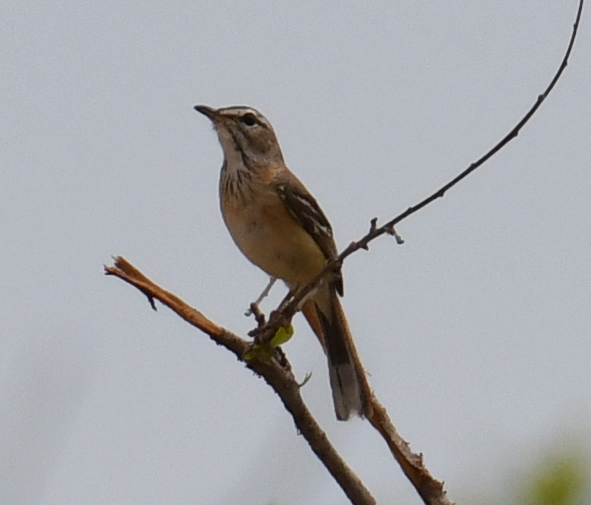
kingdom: Animalia
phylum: Chordata
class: Aves
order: Passeriformes
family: Muscicapidae
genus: Erythropygia
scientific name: Erythropygia leucophrys
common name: White-browed scrub robin
